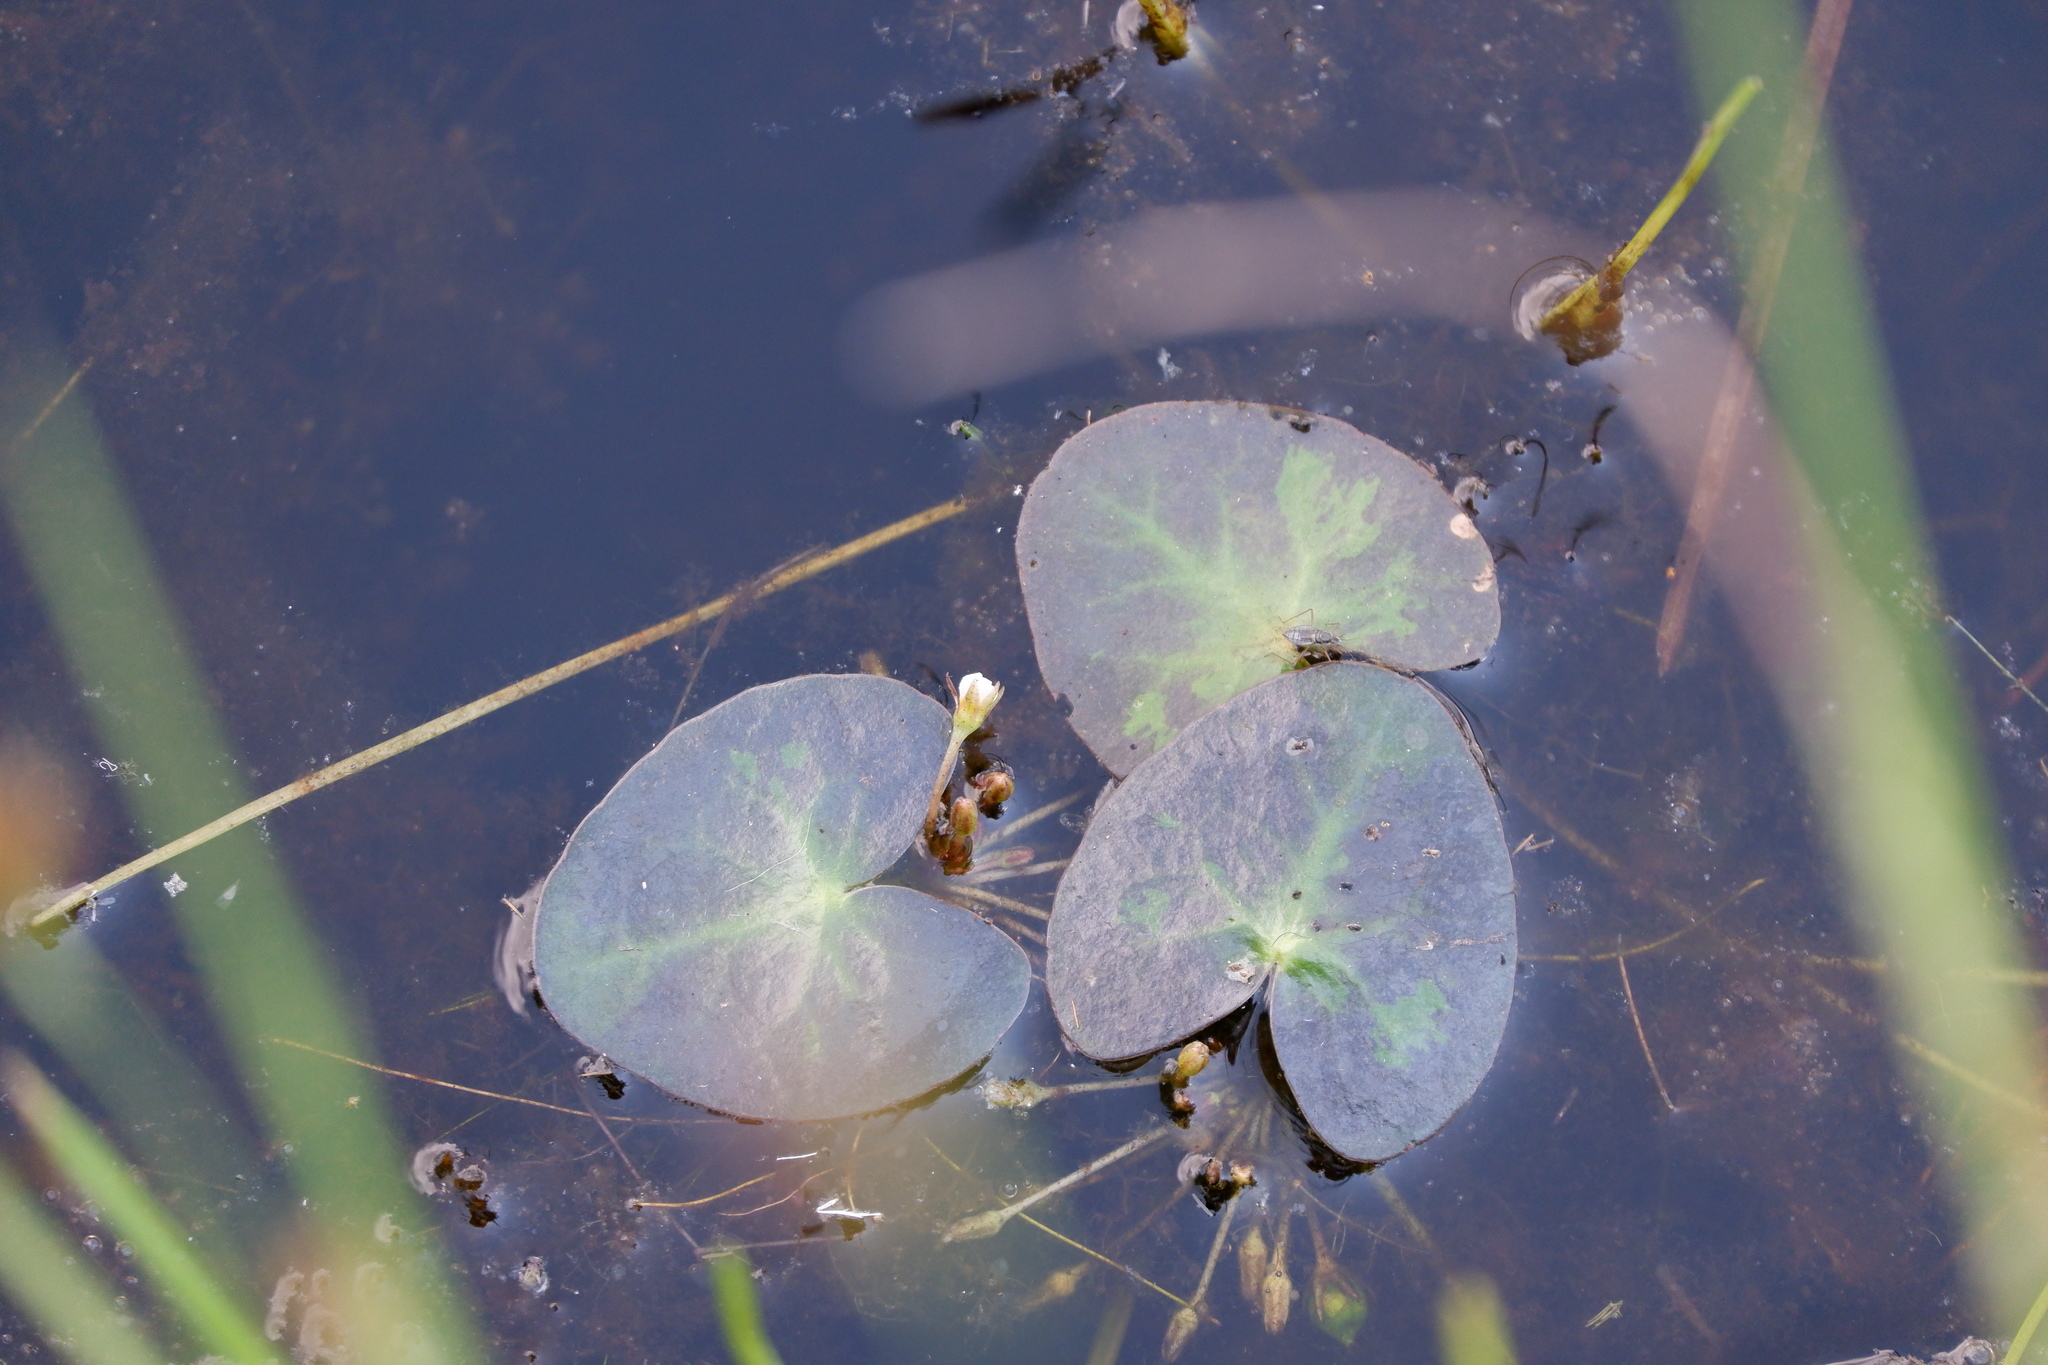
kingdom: Plantae
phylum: Tracheophyta
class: Magnoliopsida
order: Asterales
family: Menyanthaceae
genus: Nymphoides
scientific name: Nymphoides cordata
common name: Eight-angled floatingheart
